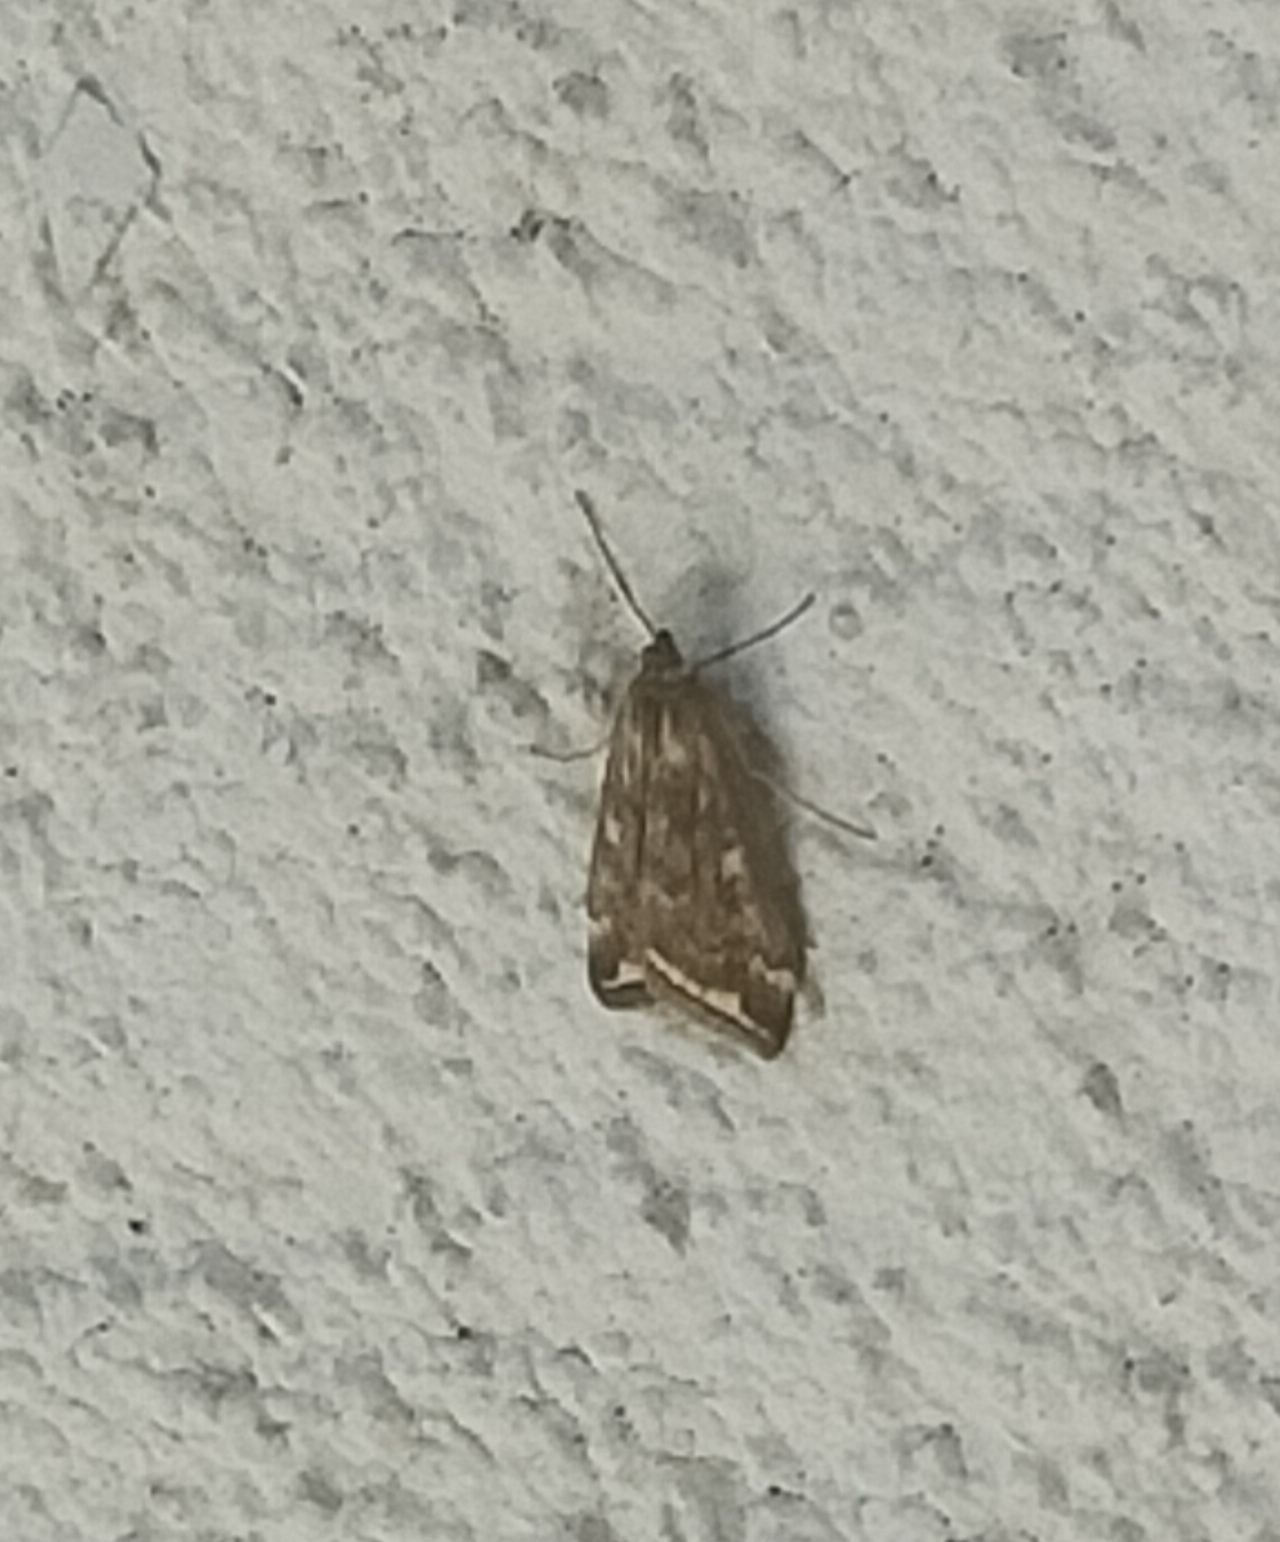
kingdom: Animalia
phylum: Arthropoda
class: Insecta
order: Lepidoptera
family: Crambidae
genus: Loxostege
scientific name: Loxostege sticticalis
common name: Crambid moth
